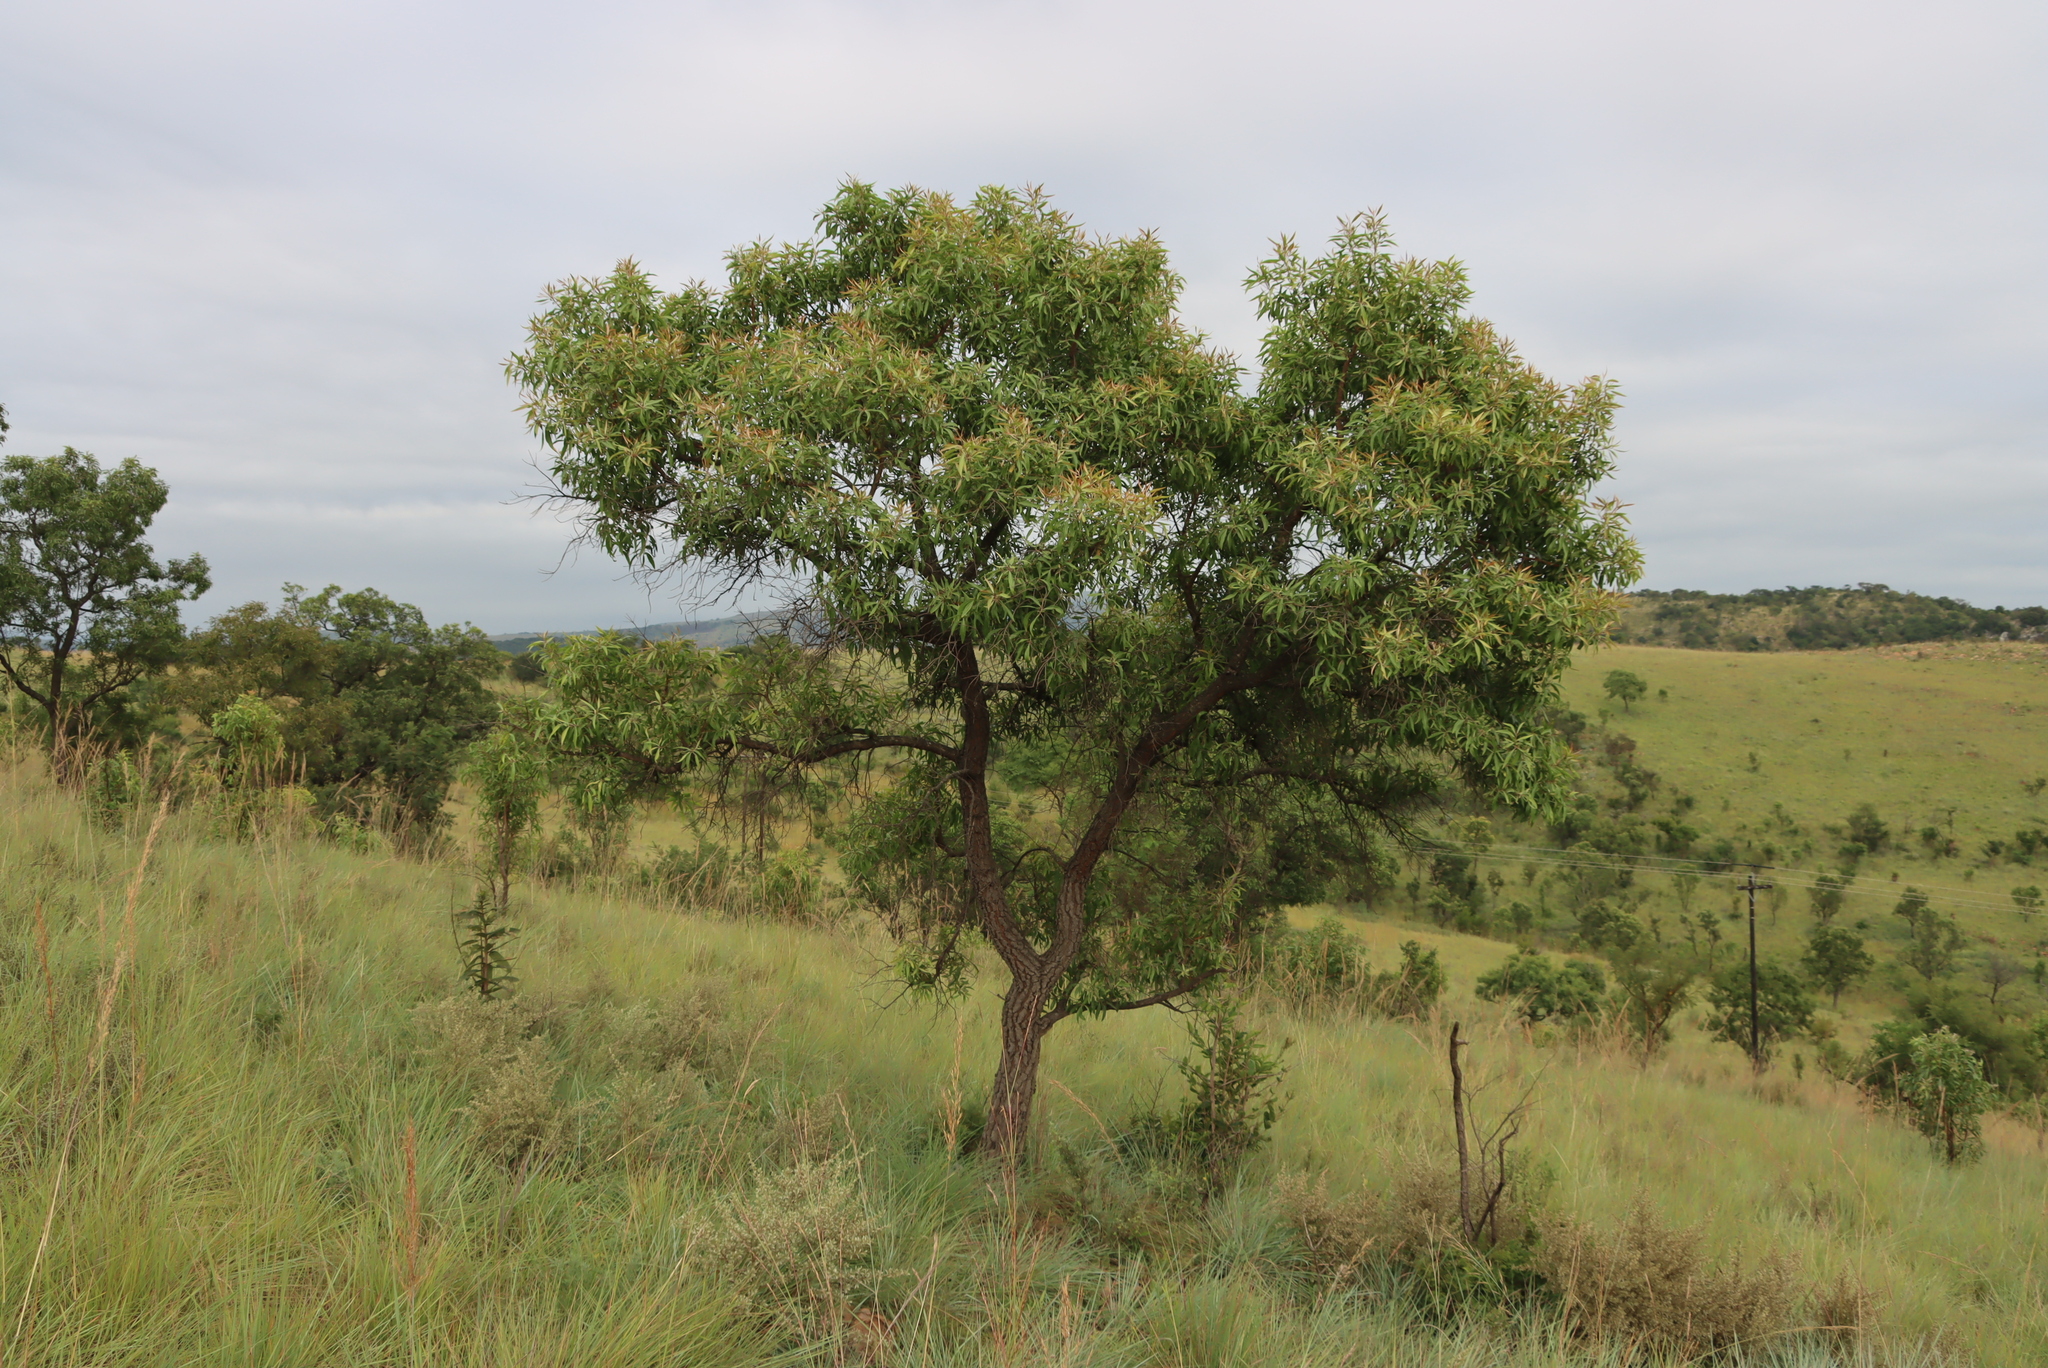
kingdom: Plantae
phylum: Tracheophyta
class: Magnoliopsida
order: Proteales
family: Proteaceae
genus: Faurea
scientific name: Faurea saligna
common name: African bean
